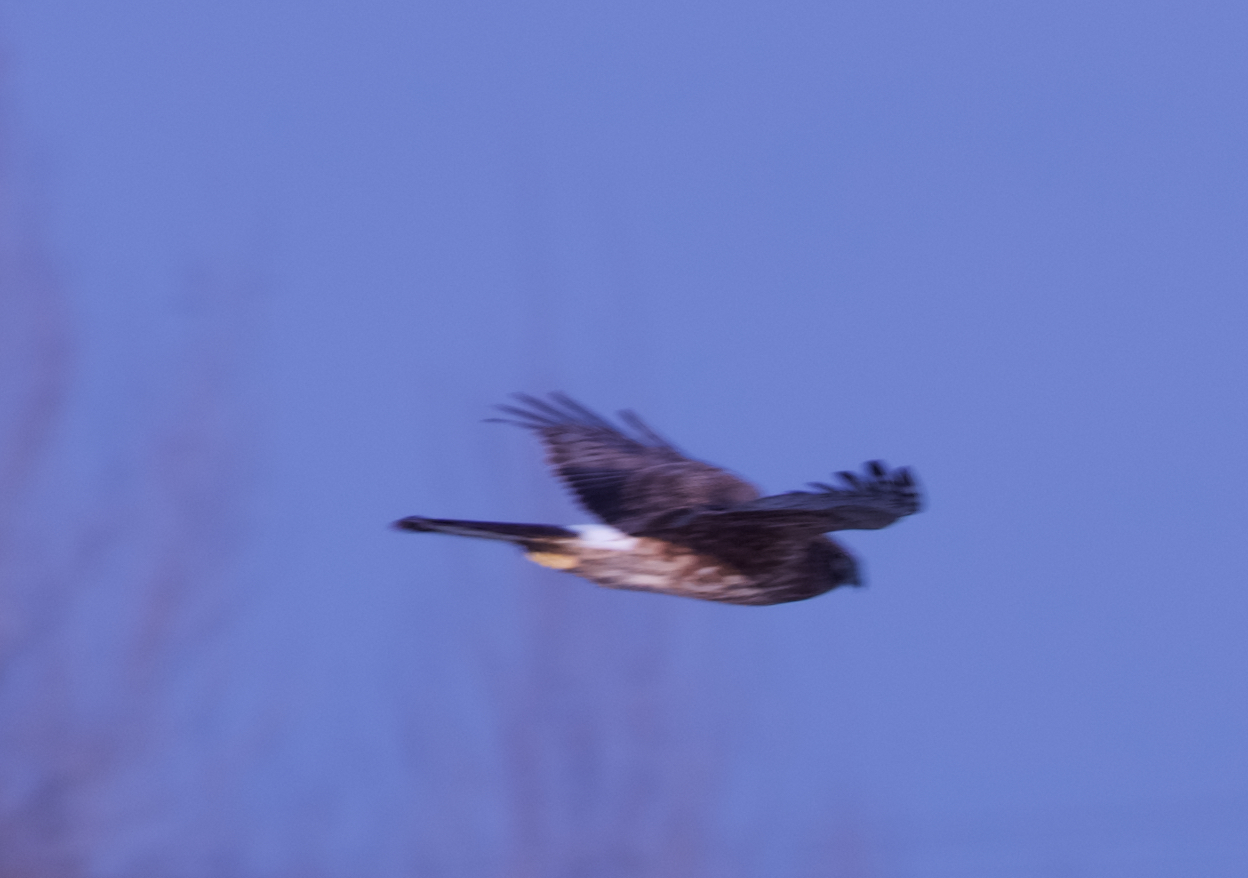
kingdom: Animalia
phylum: Chordata
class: Aves
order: Accipitriformes
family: Accipitridae
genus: Circus
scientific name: Circus cyaneus
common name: Hen harrier
